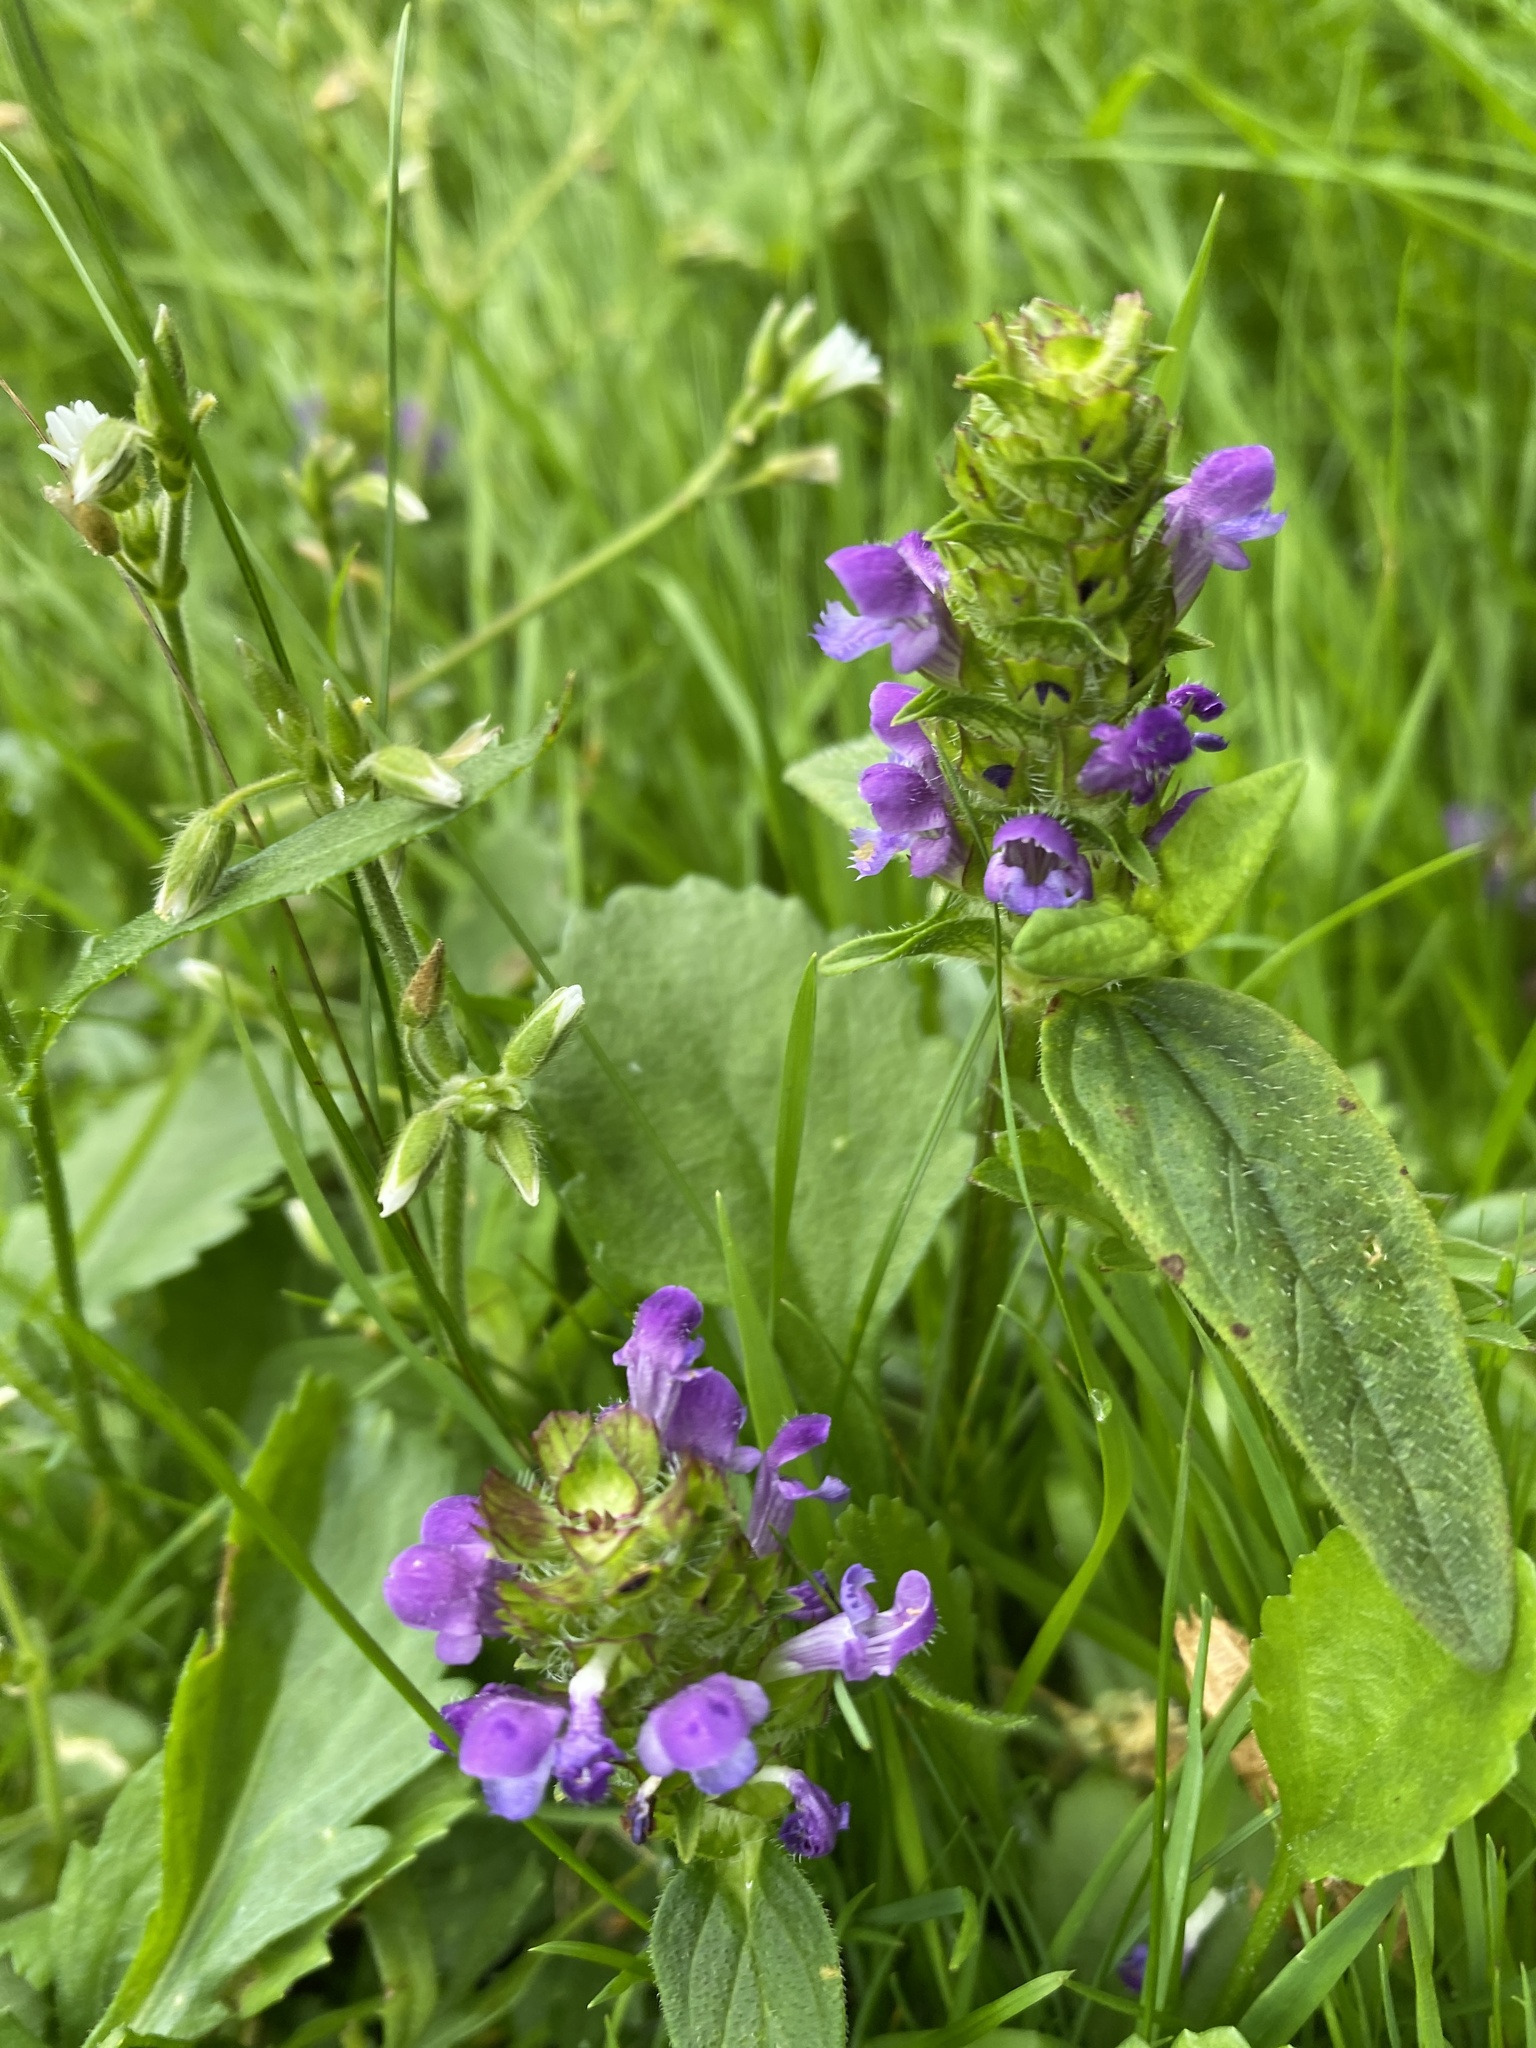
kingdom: Plantae
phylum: Tracheophyta
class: Magnoliopsida
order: Lamiales
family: Lamiaceae
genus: Prunella
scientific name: Prunella vulgaris
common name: Heal-all
